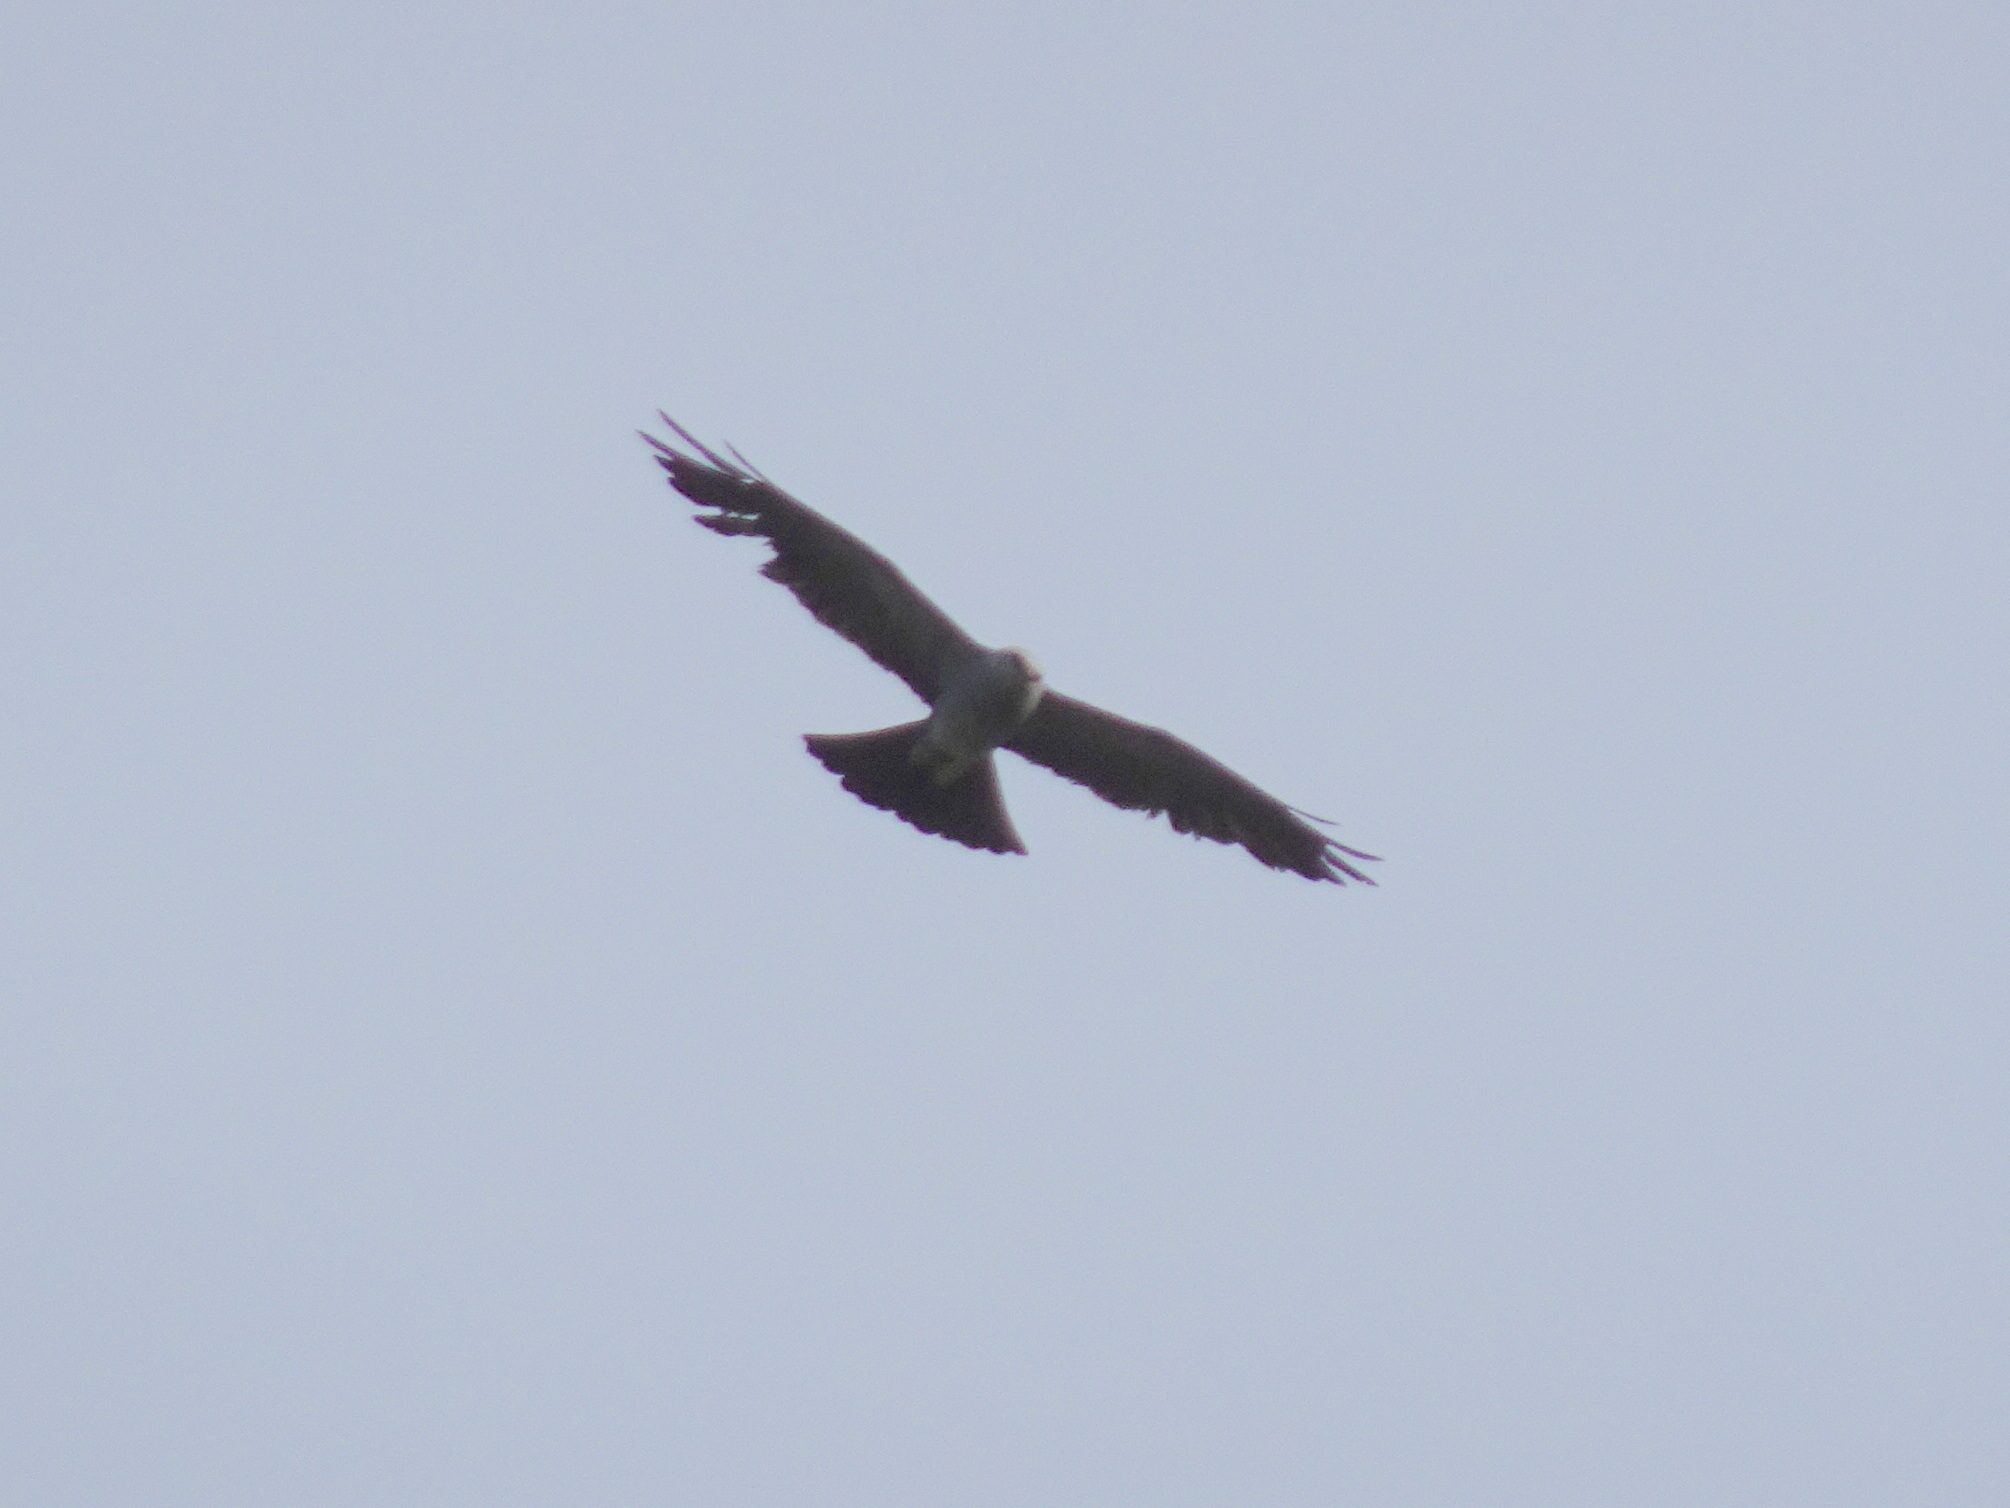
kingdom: Animalia
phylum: Chordata
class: Aves
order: Accipitriformes
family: Accipitridae
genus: Ictinia
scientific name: Ictinia mississippiensis
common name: Mississippi kite
